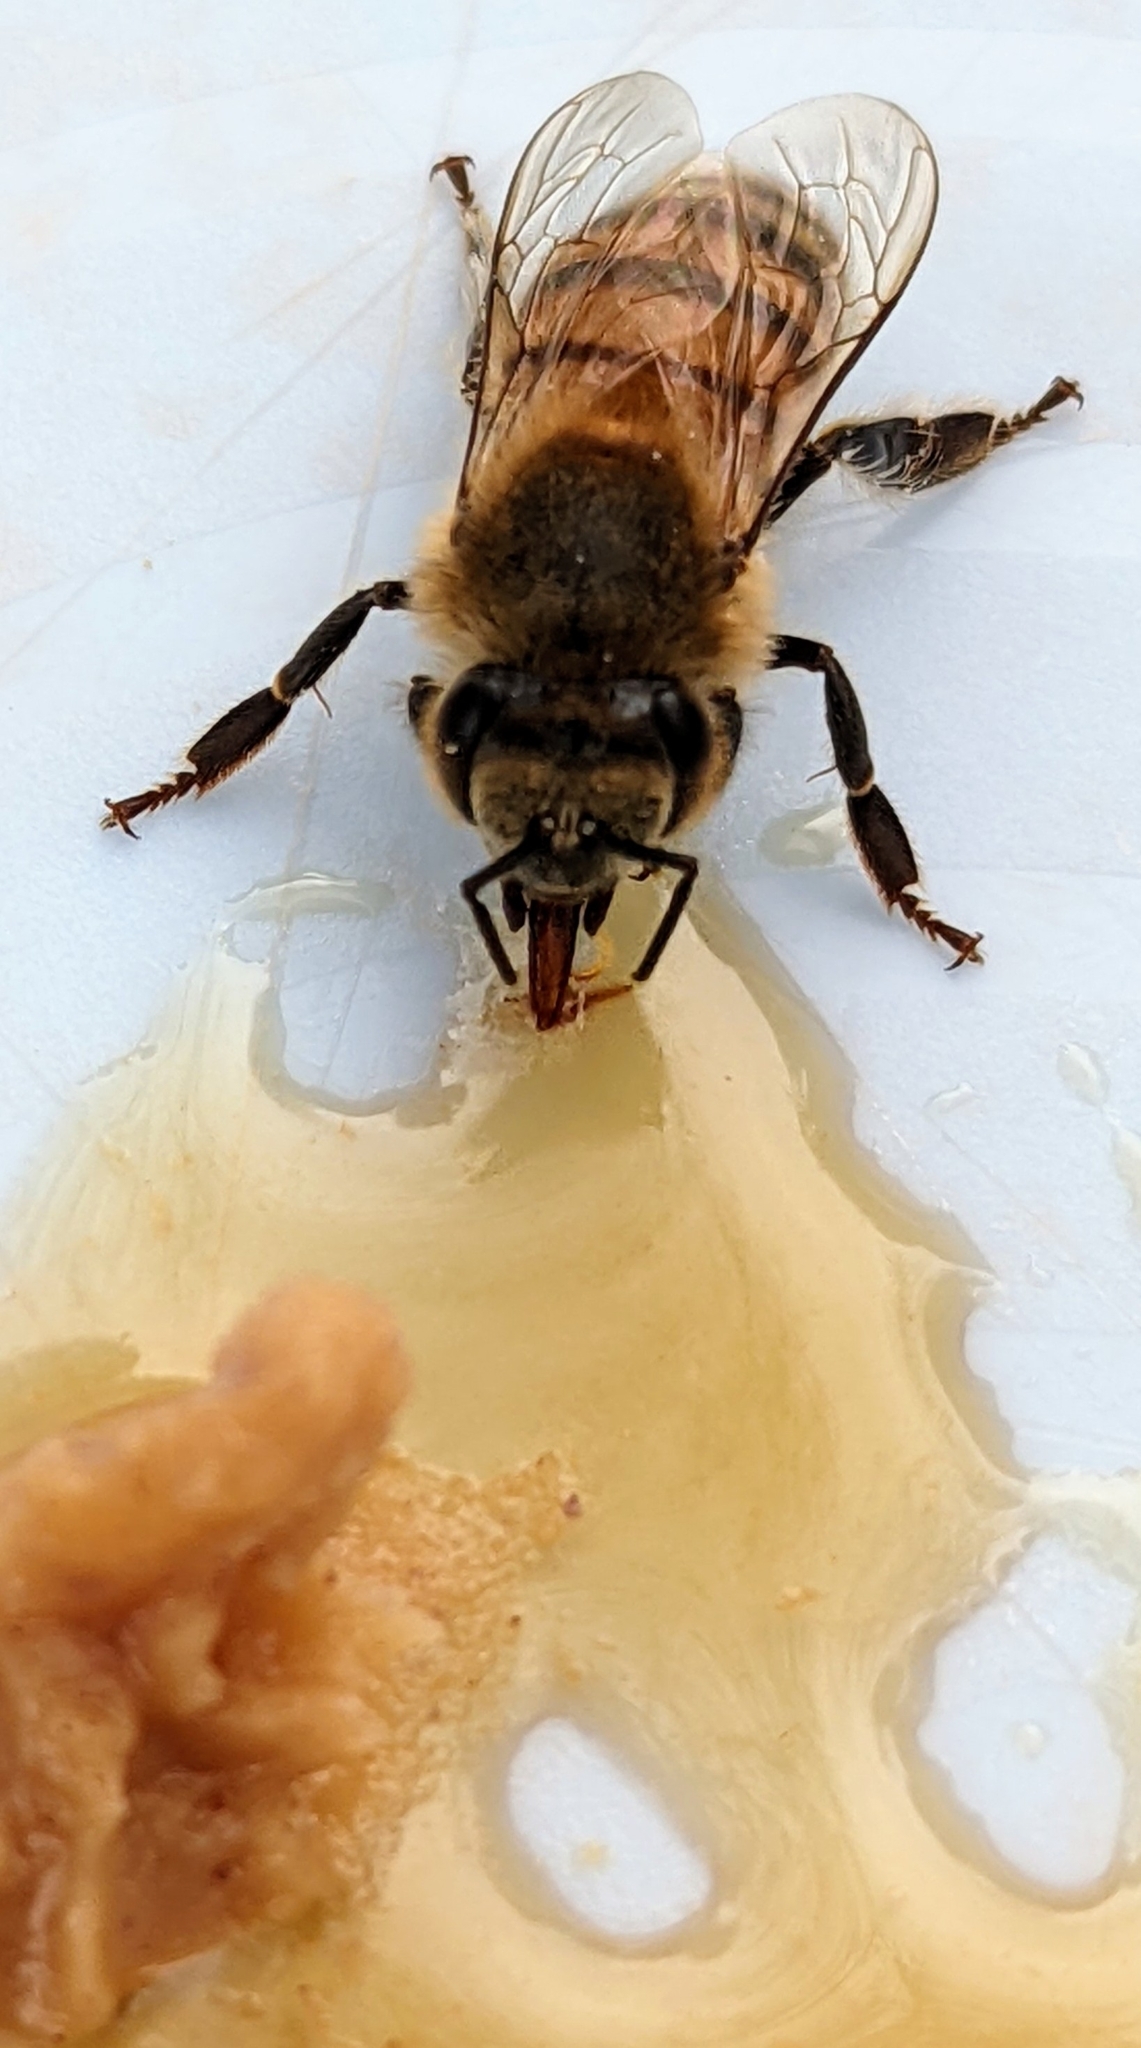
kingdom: Animalia
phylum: Arthropoda
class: Insecta
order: Hymenoptera
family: Apidae
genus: Apis
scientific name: Apis mellifera
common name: Honey bee
